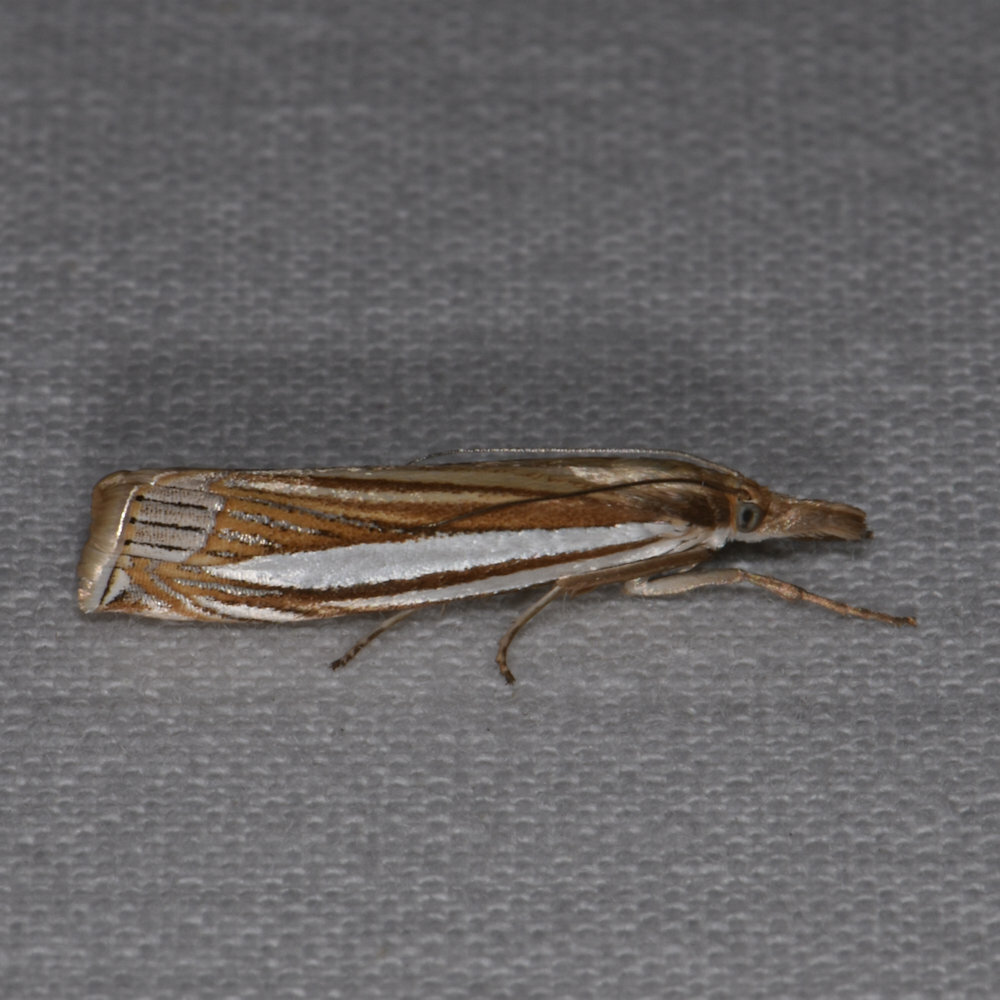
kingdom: Animalia
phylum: Arthropoda
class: Insecta
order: Lepidoptera
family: Crambidae
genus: Crambus
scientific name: Crambus laqueatellus
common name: Eastern grass-veneer
